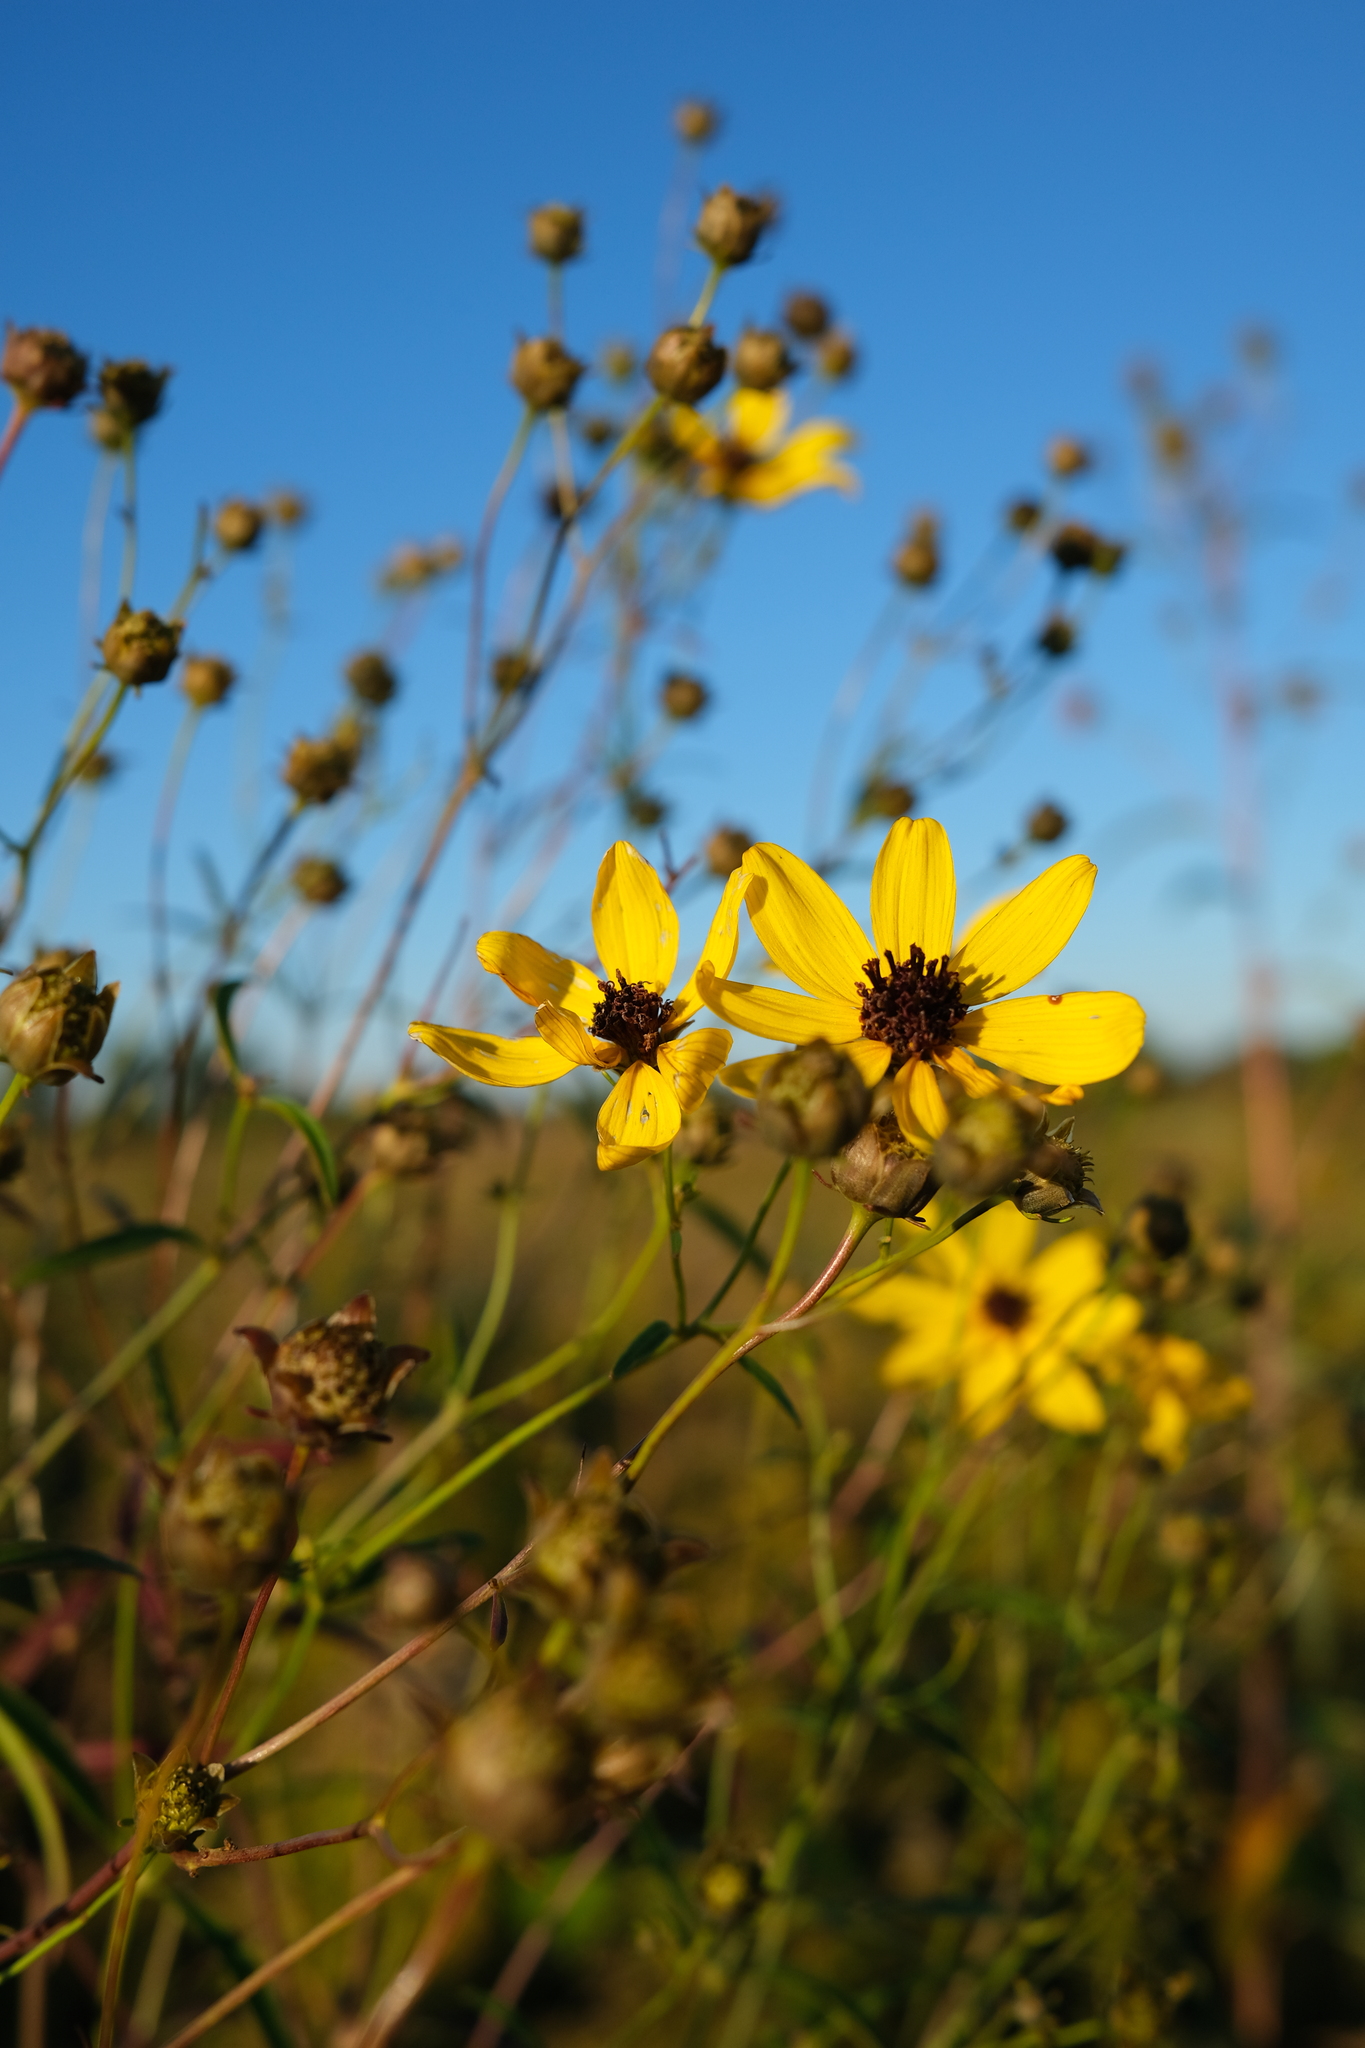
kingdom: Plantae
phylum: Tracheophyta
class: Magnoliopsida
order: Asterales
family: Asteraceae
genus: Coreopsis
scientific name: Coreopsis tripteris
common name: Tall coreopsis
